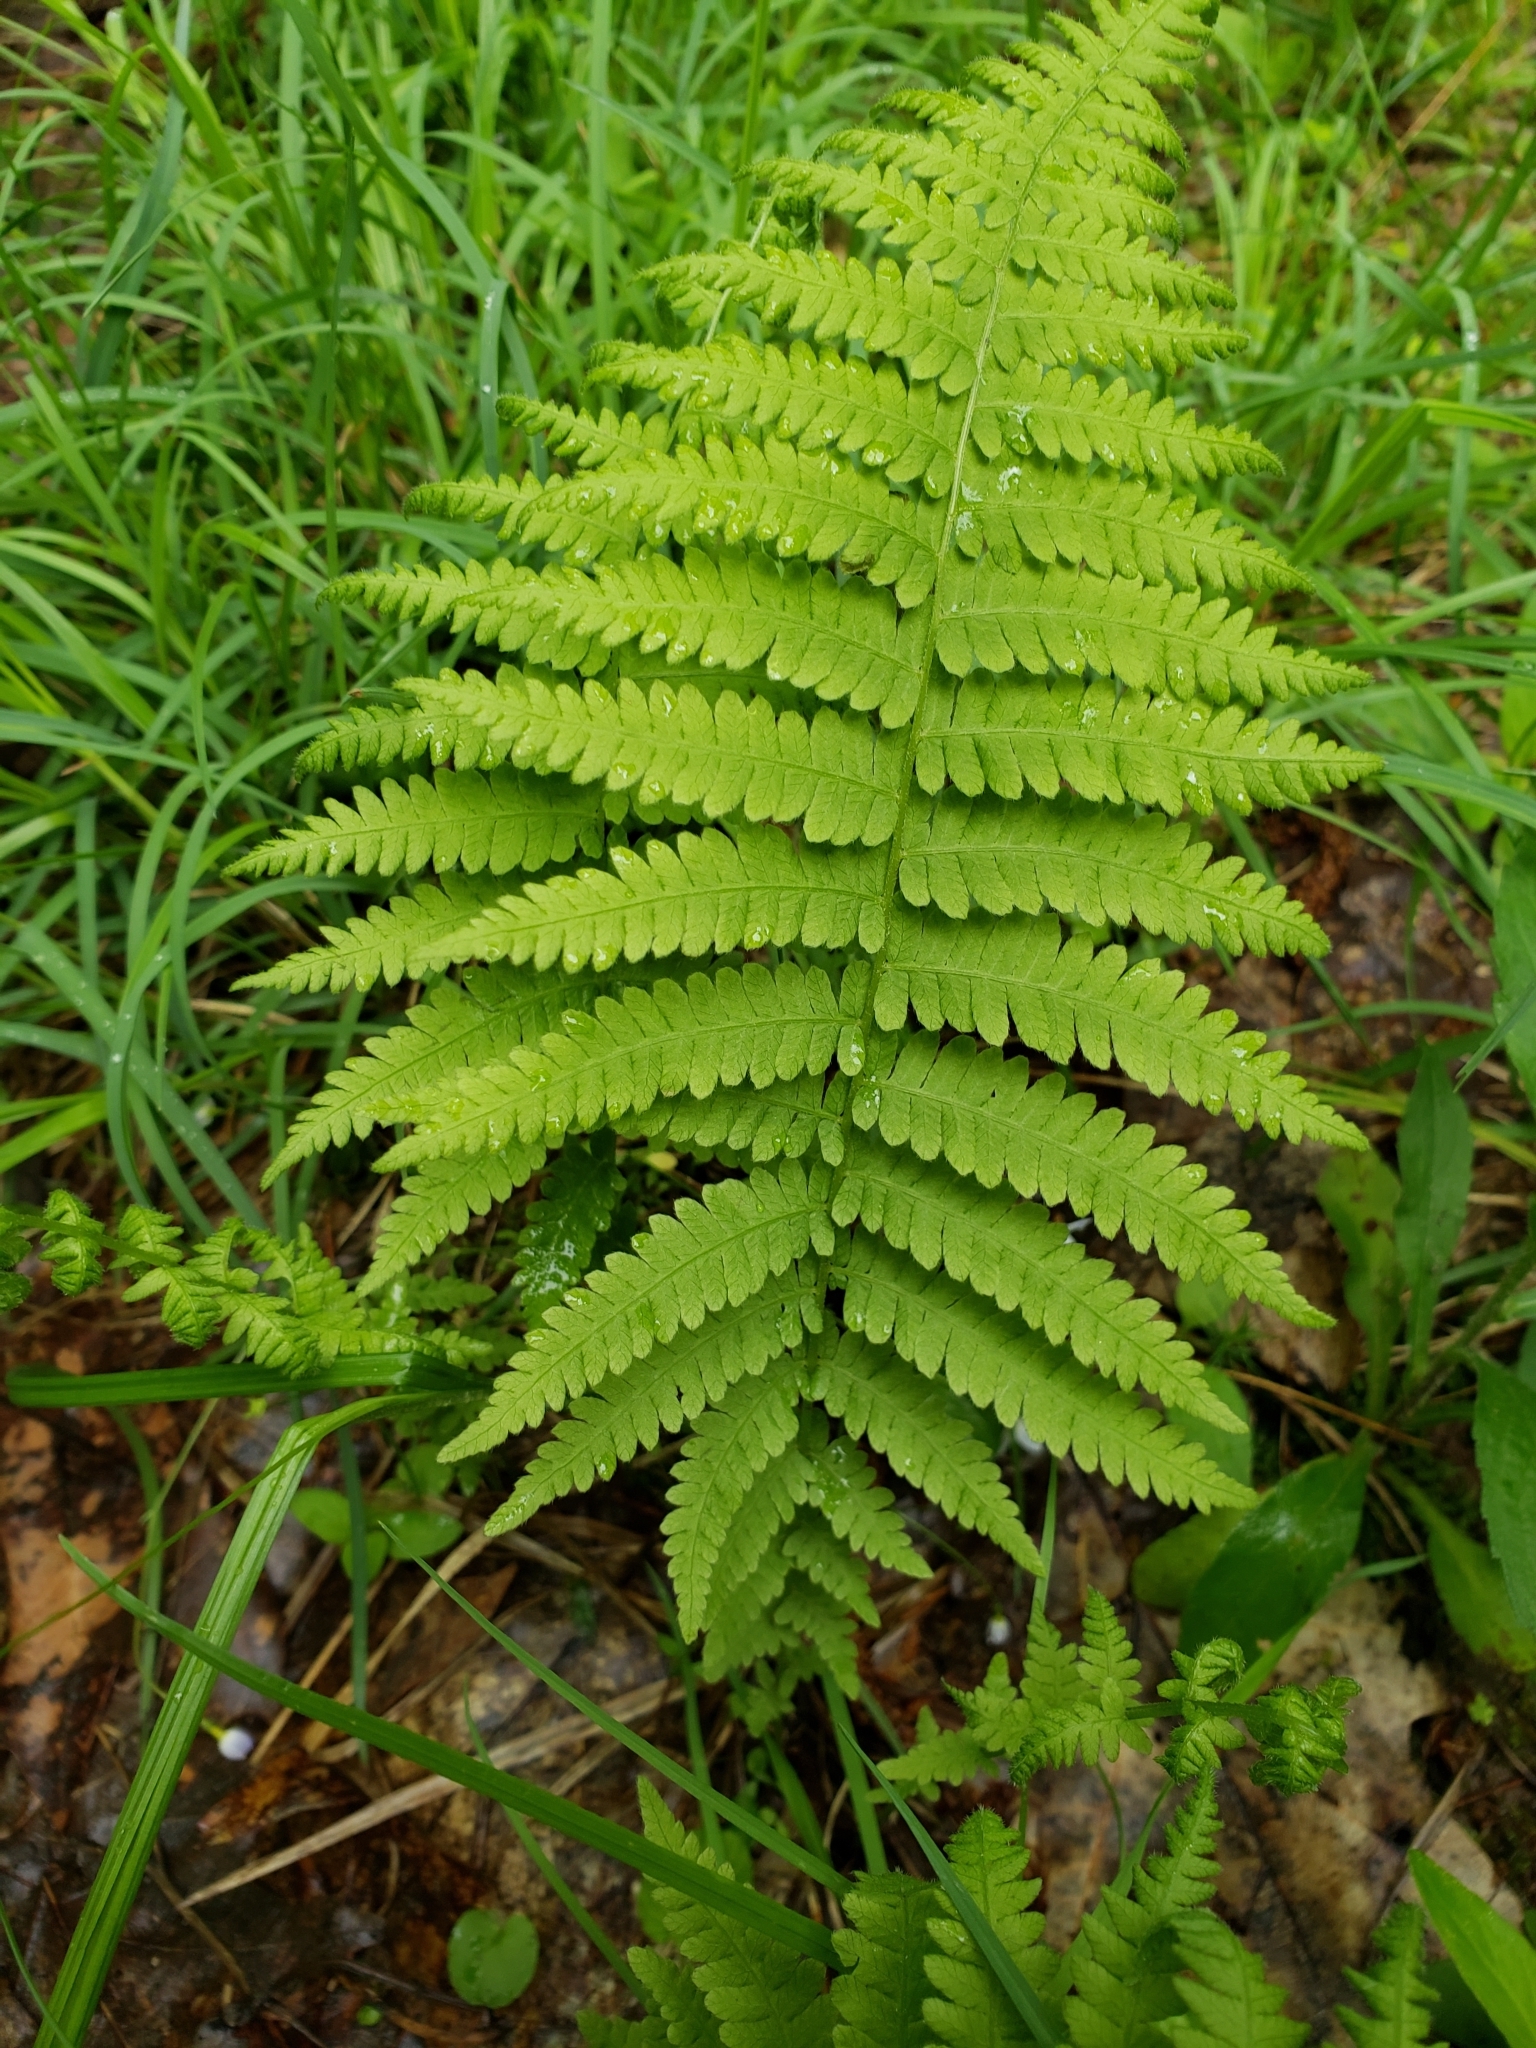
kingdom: Plantae
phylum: Tracheophyta
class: Polypodiopsida
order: Polypodiales
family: Thelypteridaceae
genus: Amauropelta
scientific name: Amauropelta noveboracensis
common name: New york fern
